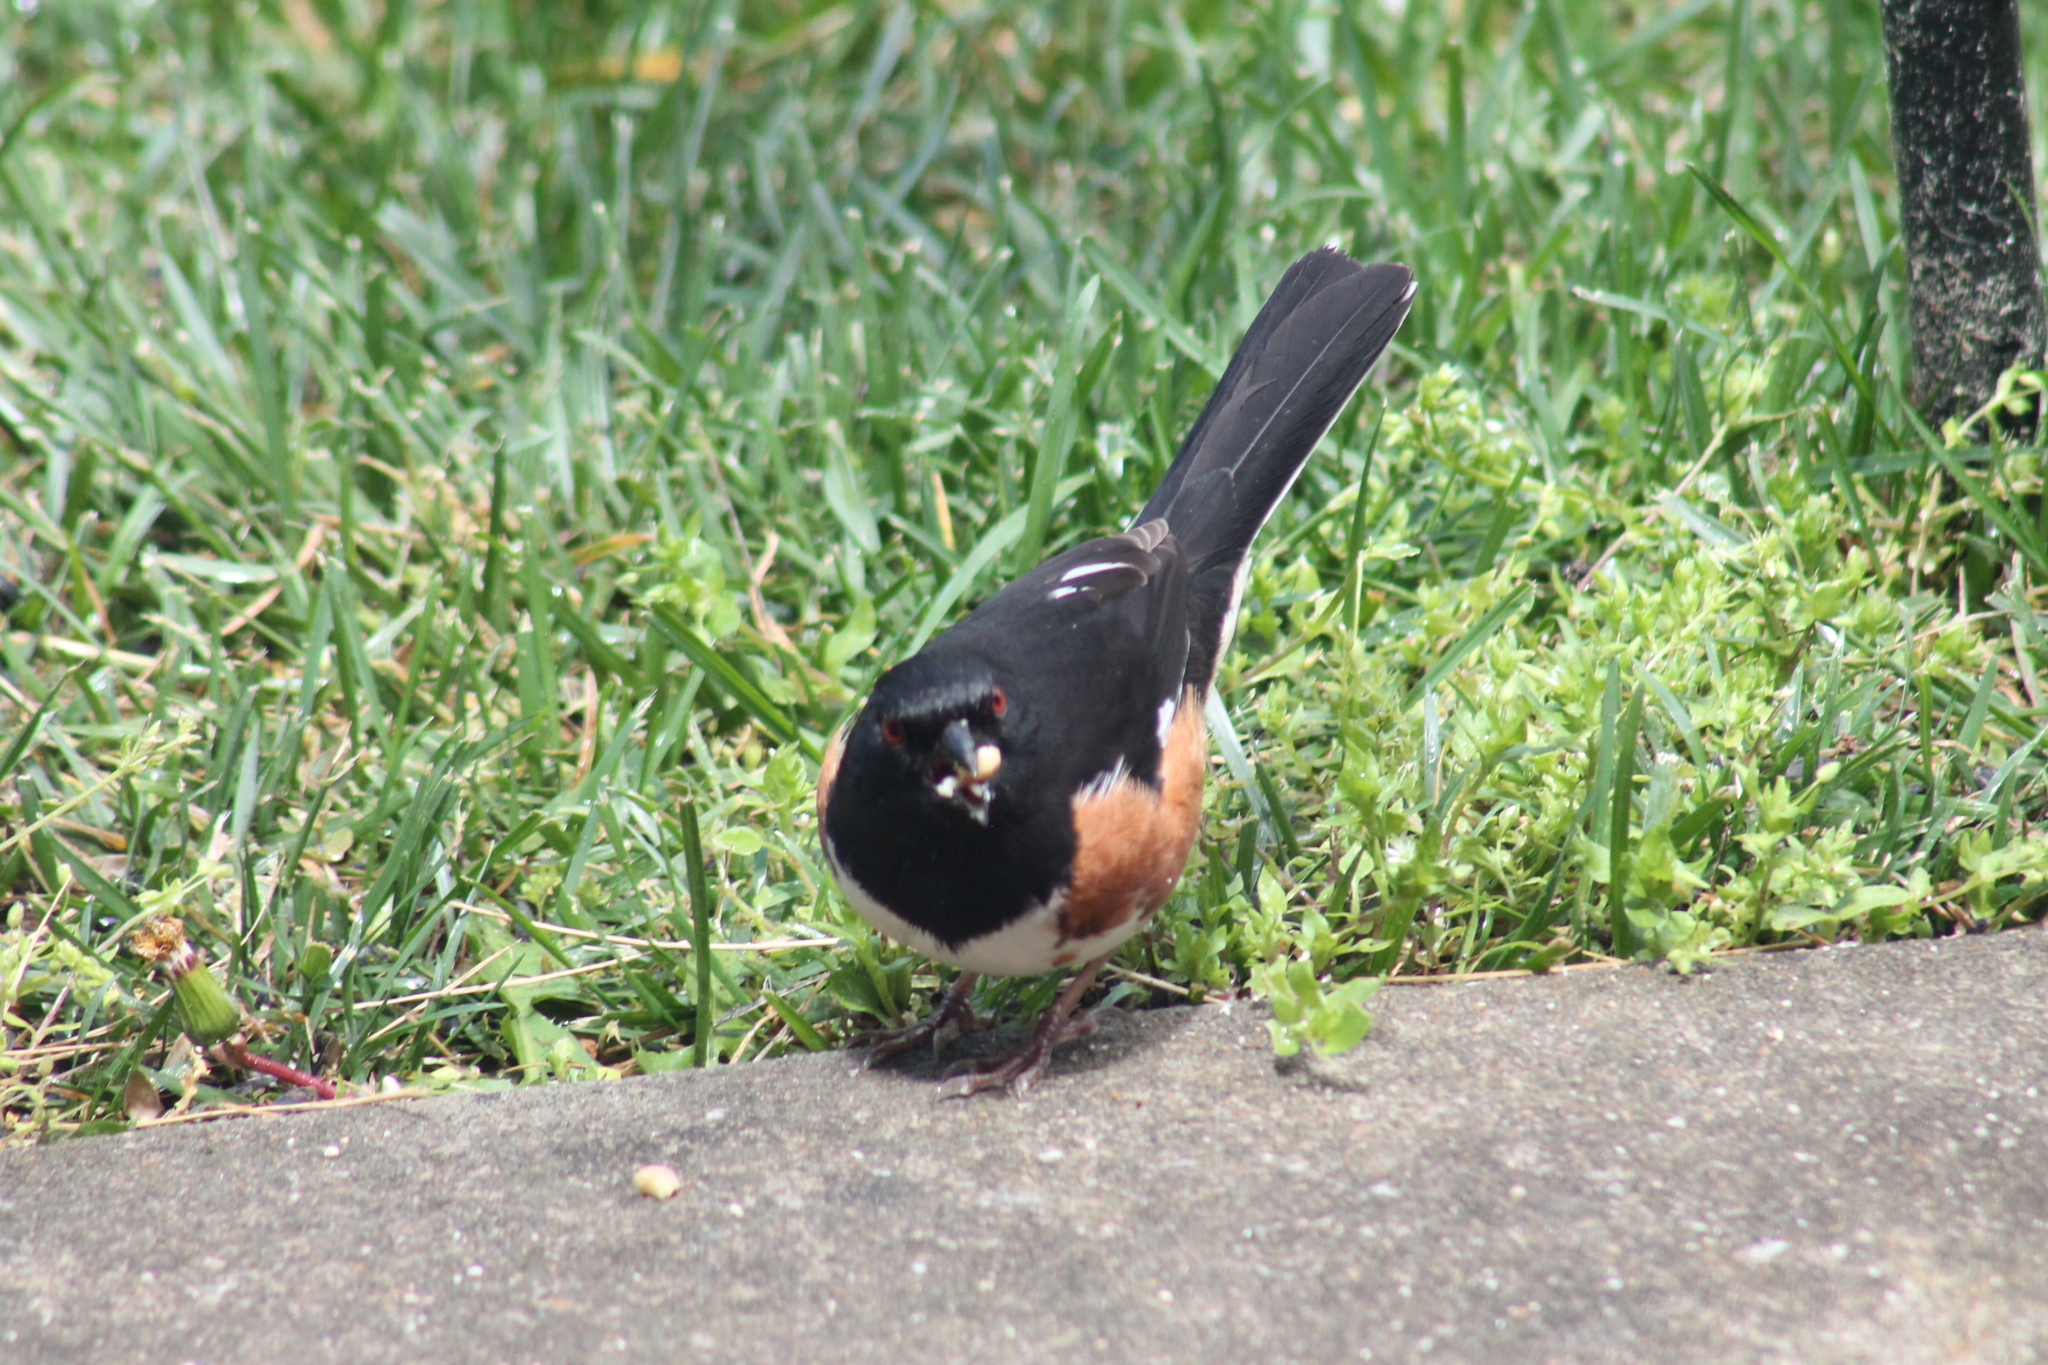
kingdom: Animalia
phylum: Chordata
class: Aves
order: Passeriformes
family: Passerellidae
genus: Pipilo
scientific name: Pipilo erythrophthalmus
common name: Eastern towhee
